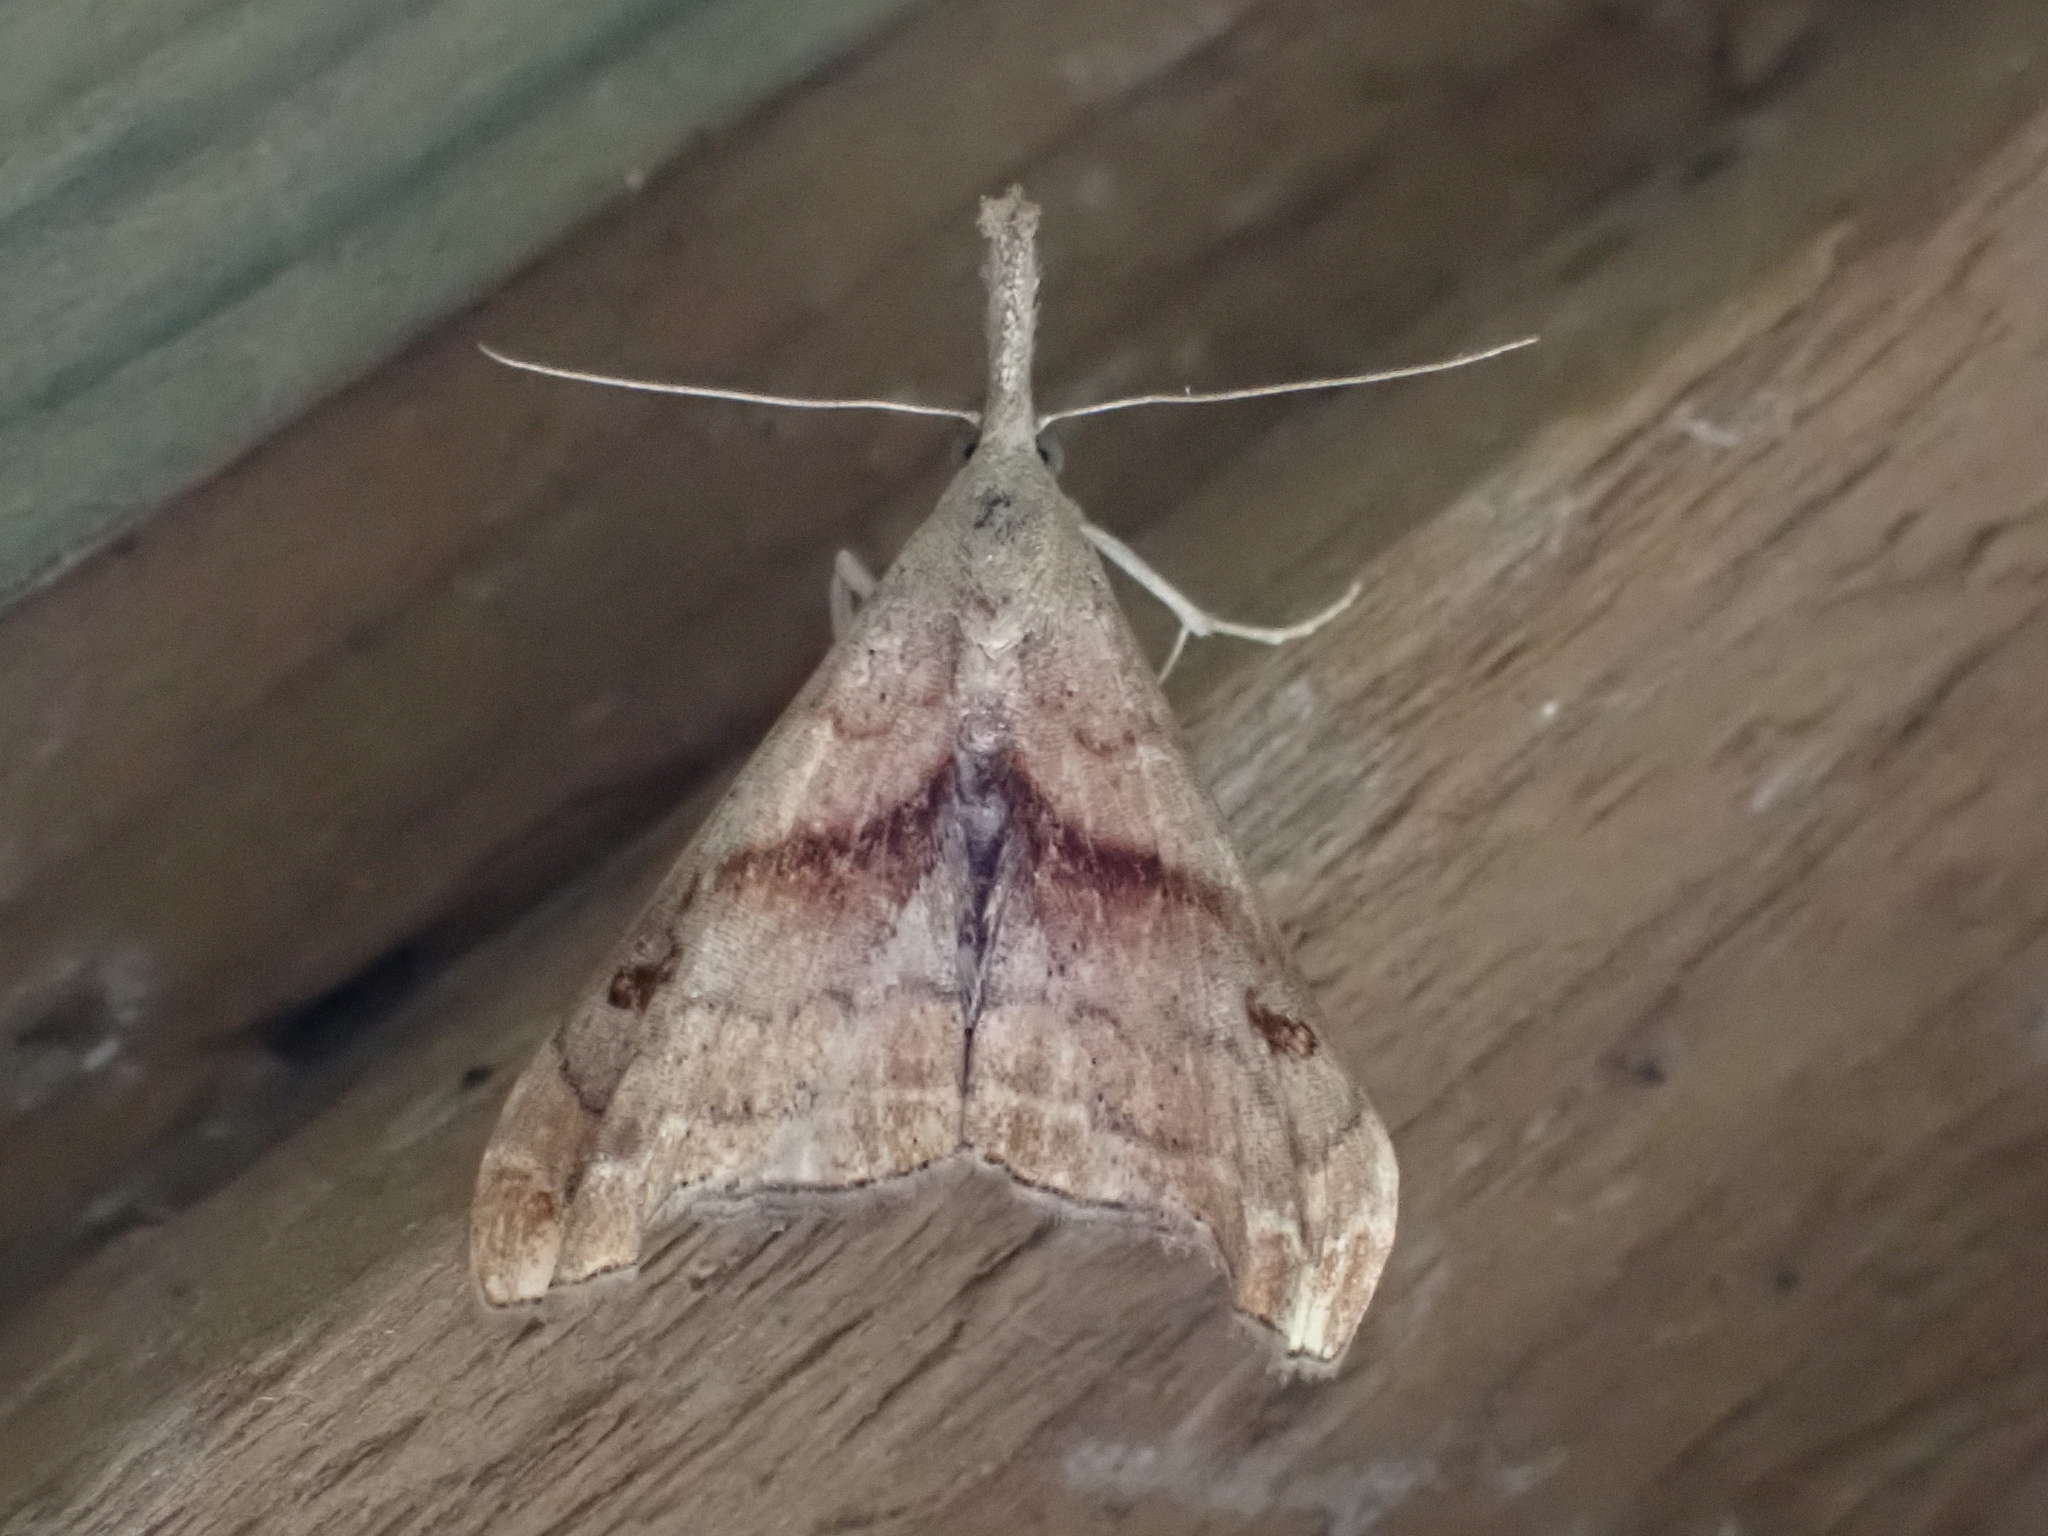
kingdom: Animalia
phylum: Arthropoda
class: Insecta
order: Lepidoptera
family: Erebidae
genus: Palthis
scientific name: Palthis angulalis
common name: Dark-spotted palthis moth
